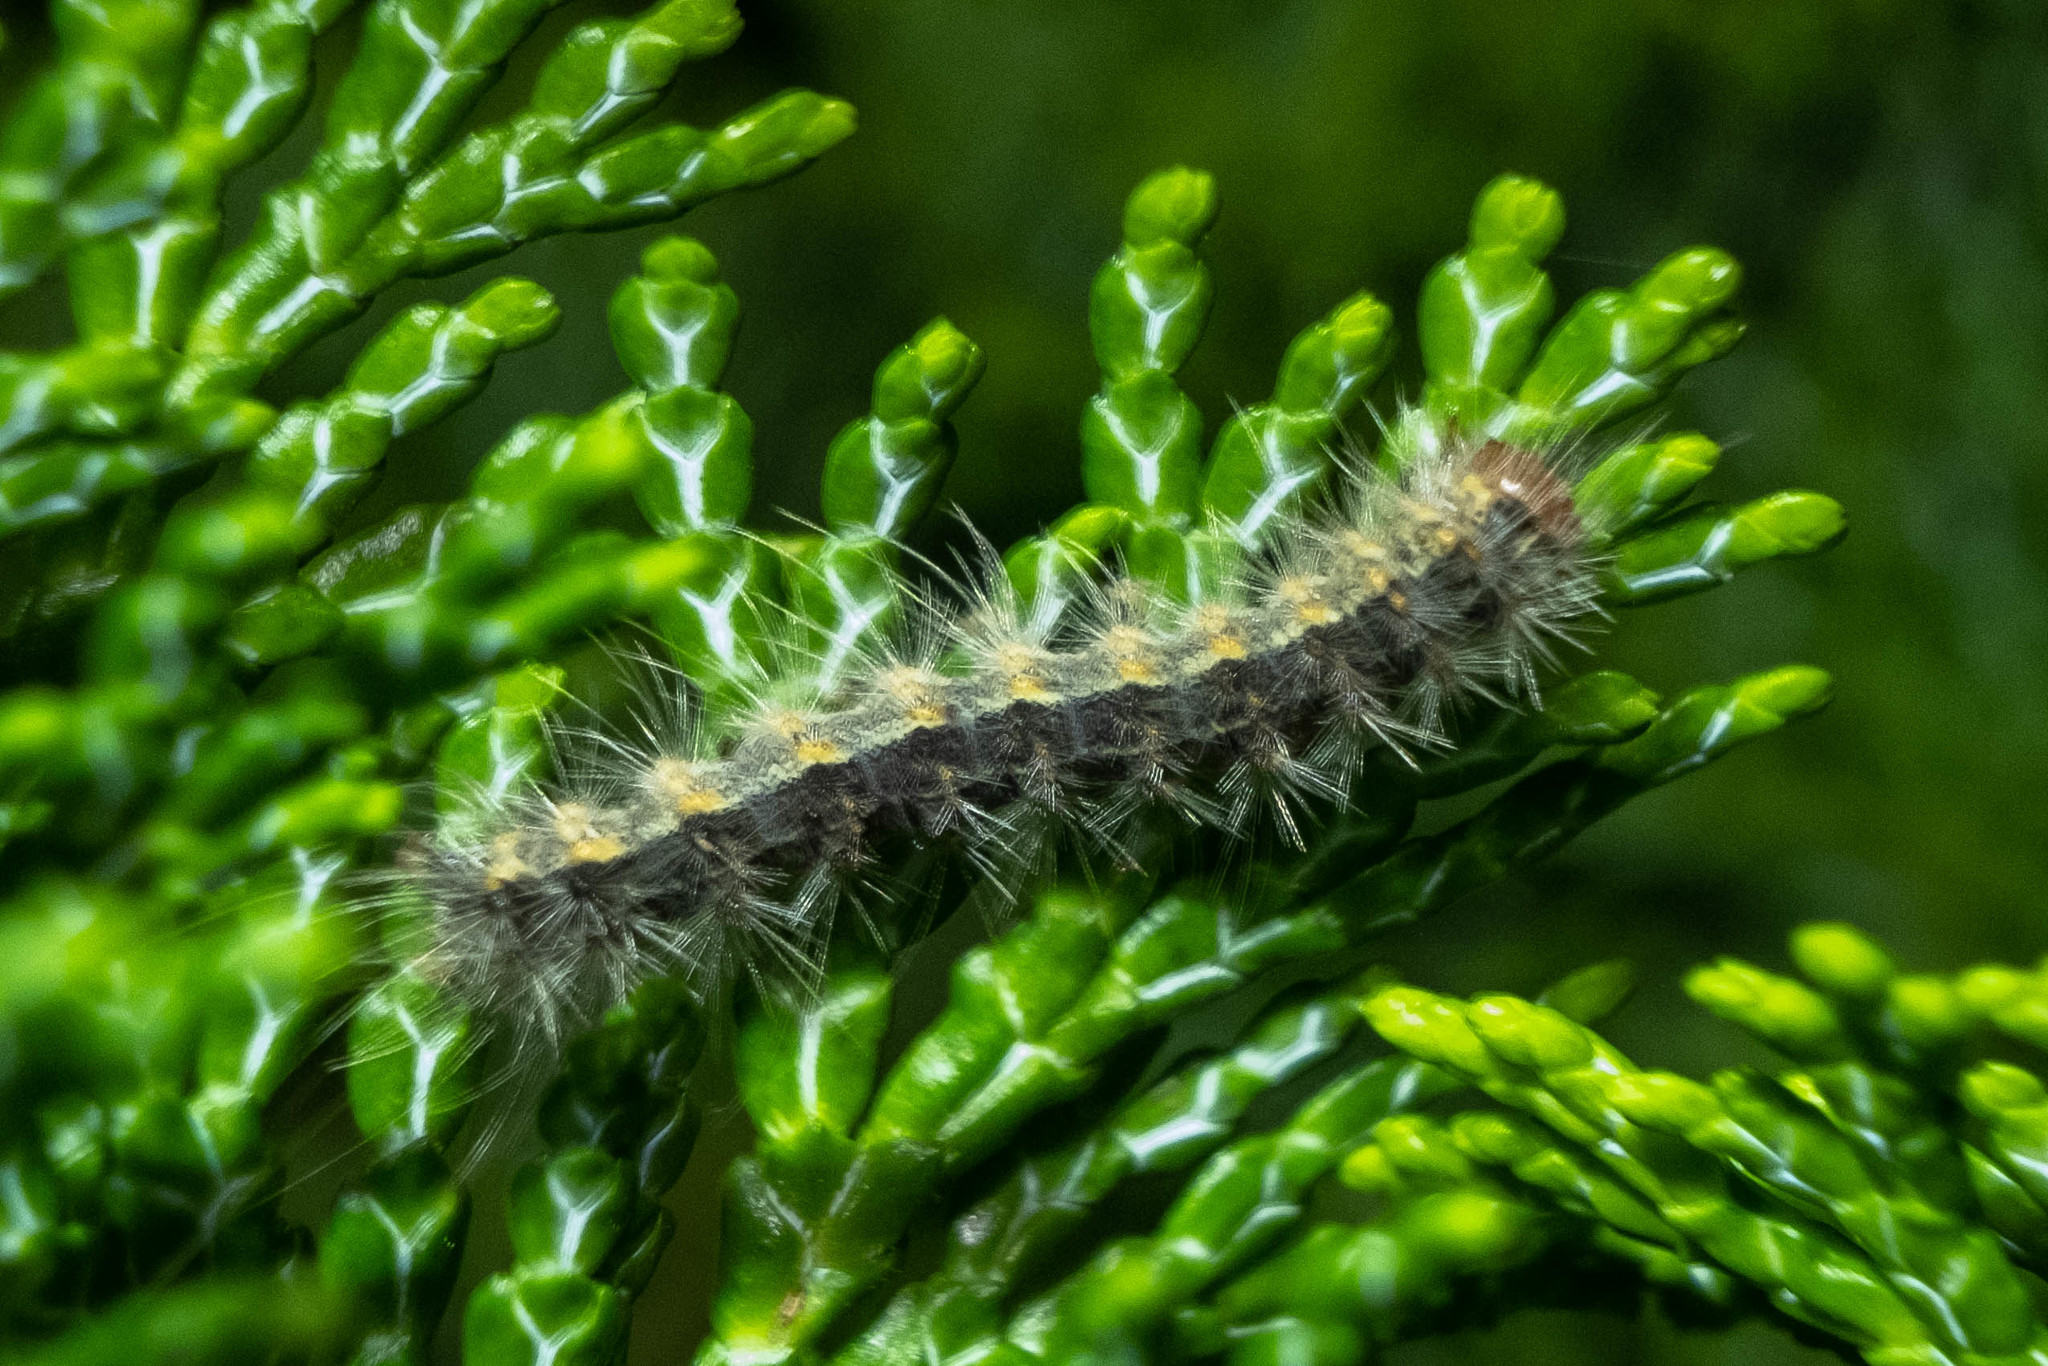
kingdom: Animalia
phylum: Arthropoda
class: Insecta
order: Lepidoptera
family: Erebidae
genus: Hyphantria
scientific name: Hyphantria cunea
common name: American white moth
